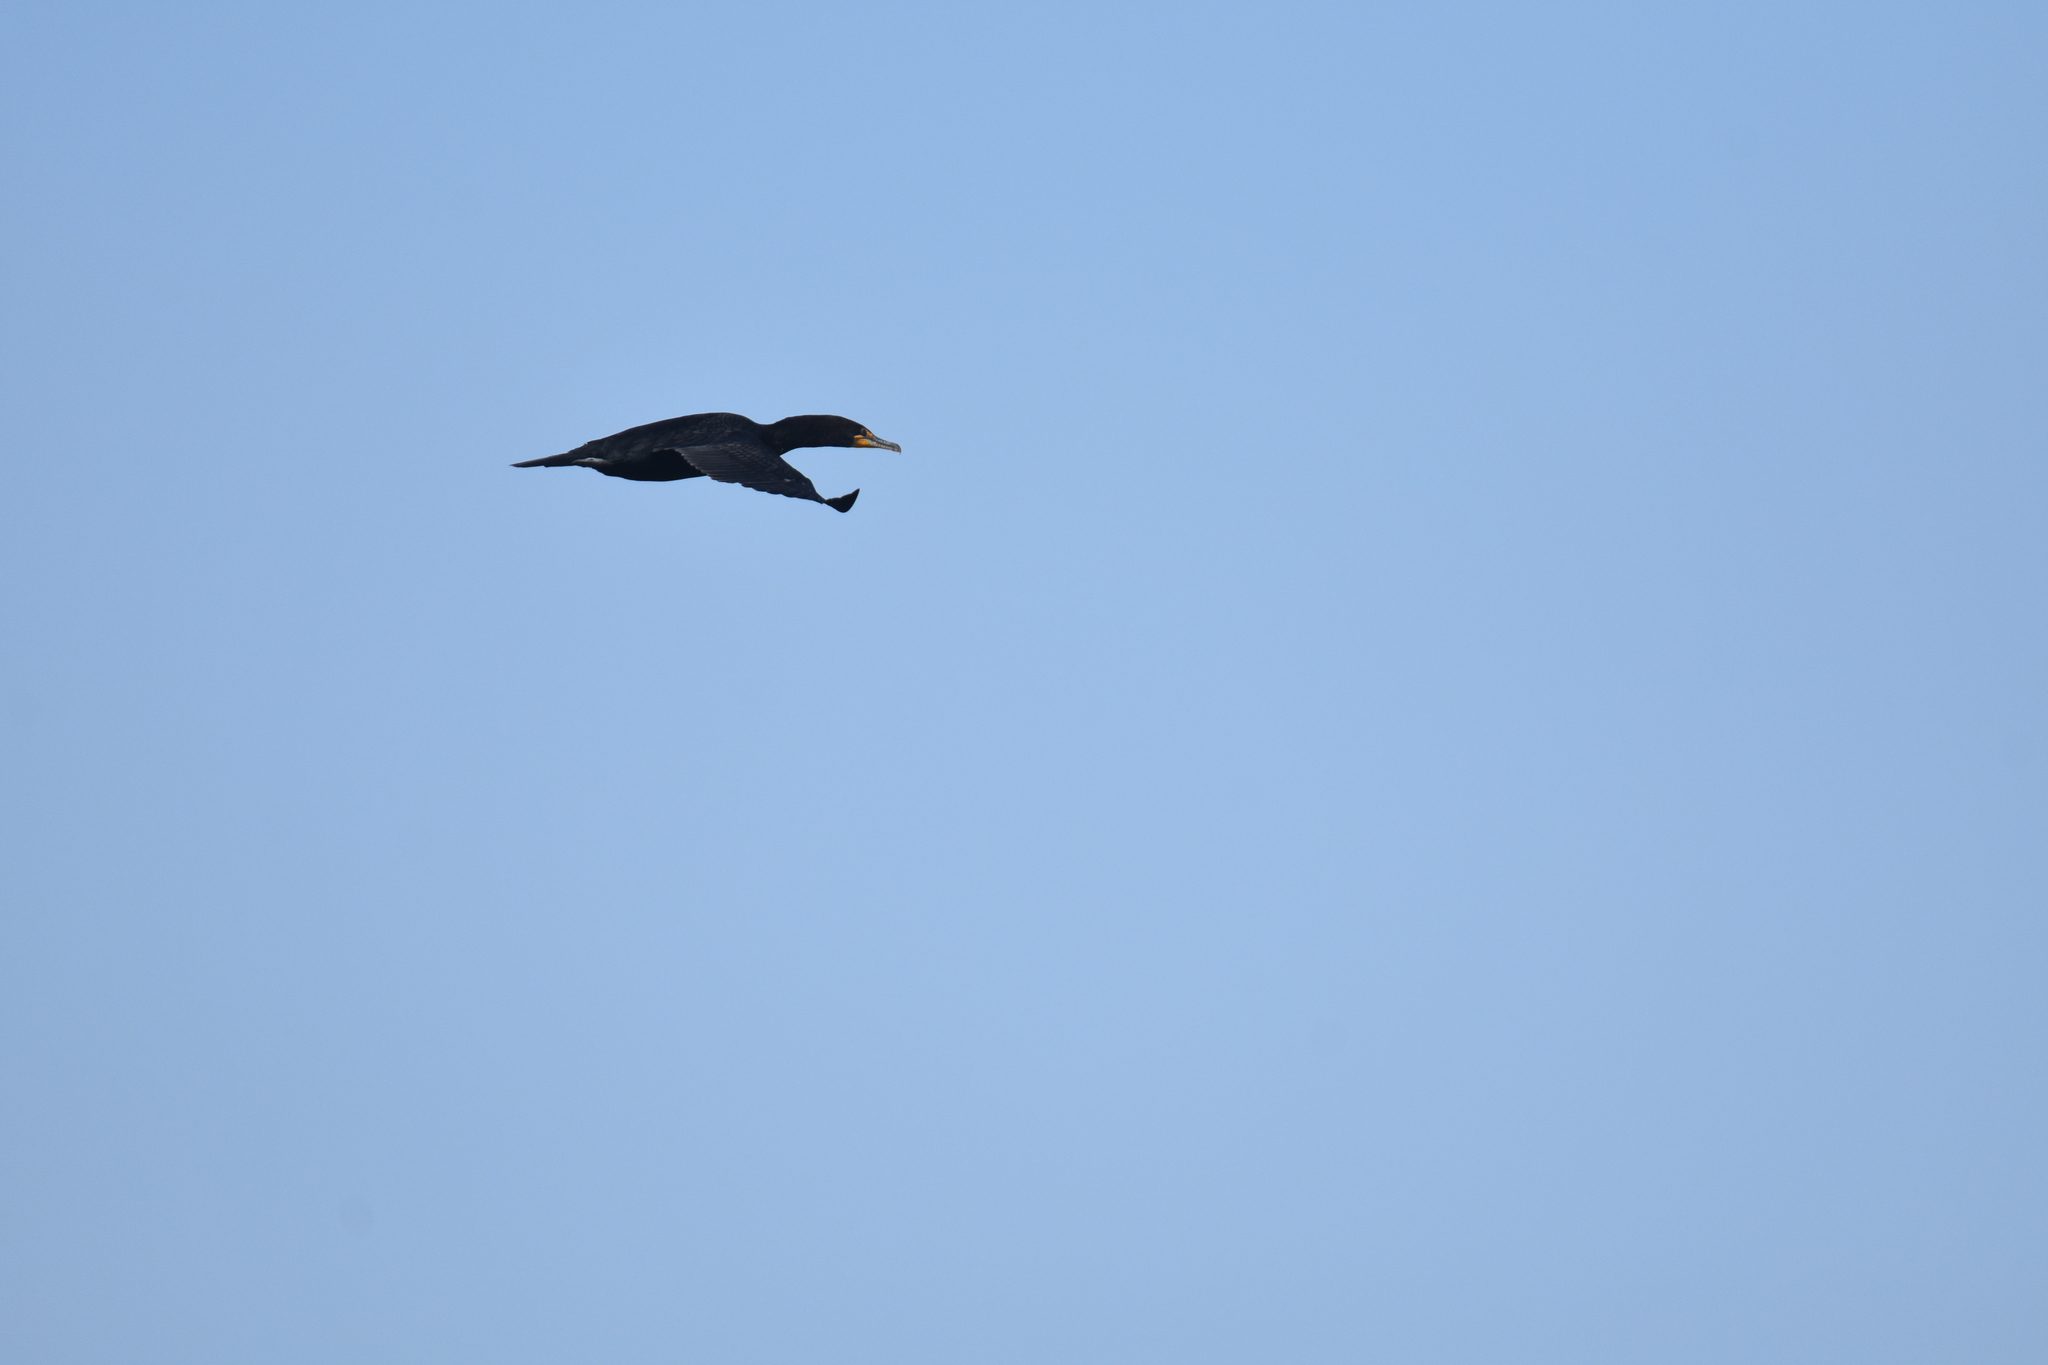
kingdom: Animalia
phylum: Chordata
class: Aves
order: Suliformes
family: Phalacrocoracidae
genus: Phalacrocorax
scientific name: Phalacrocorax auritus
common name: Double-crested cormorant
